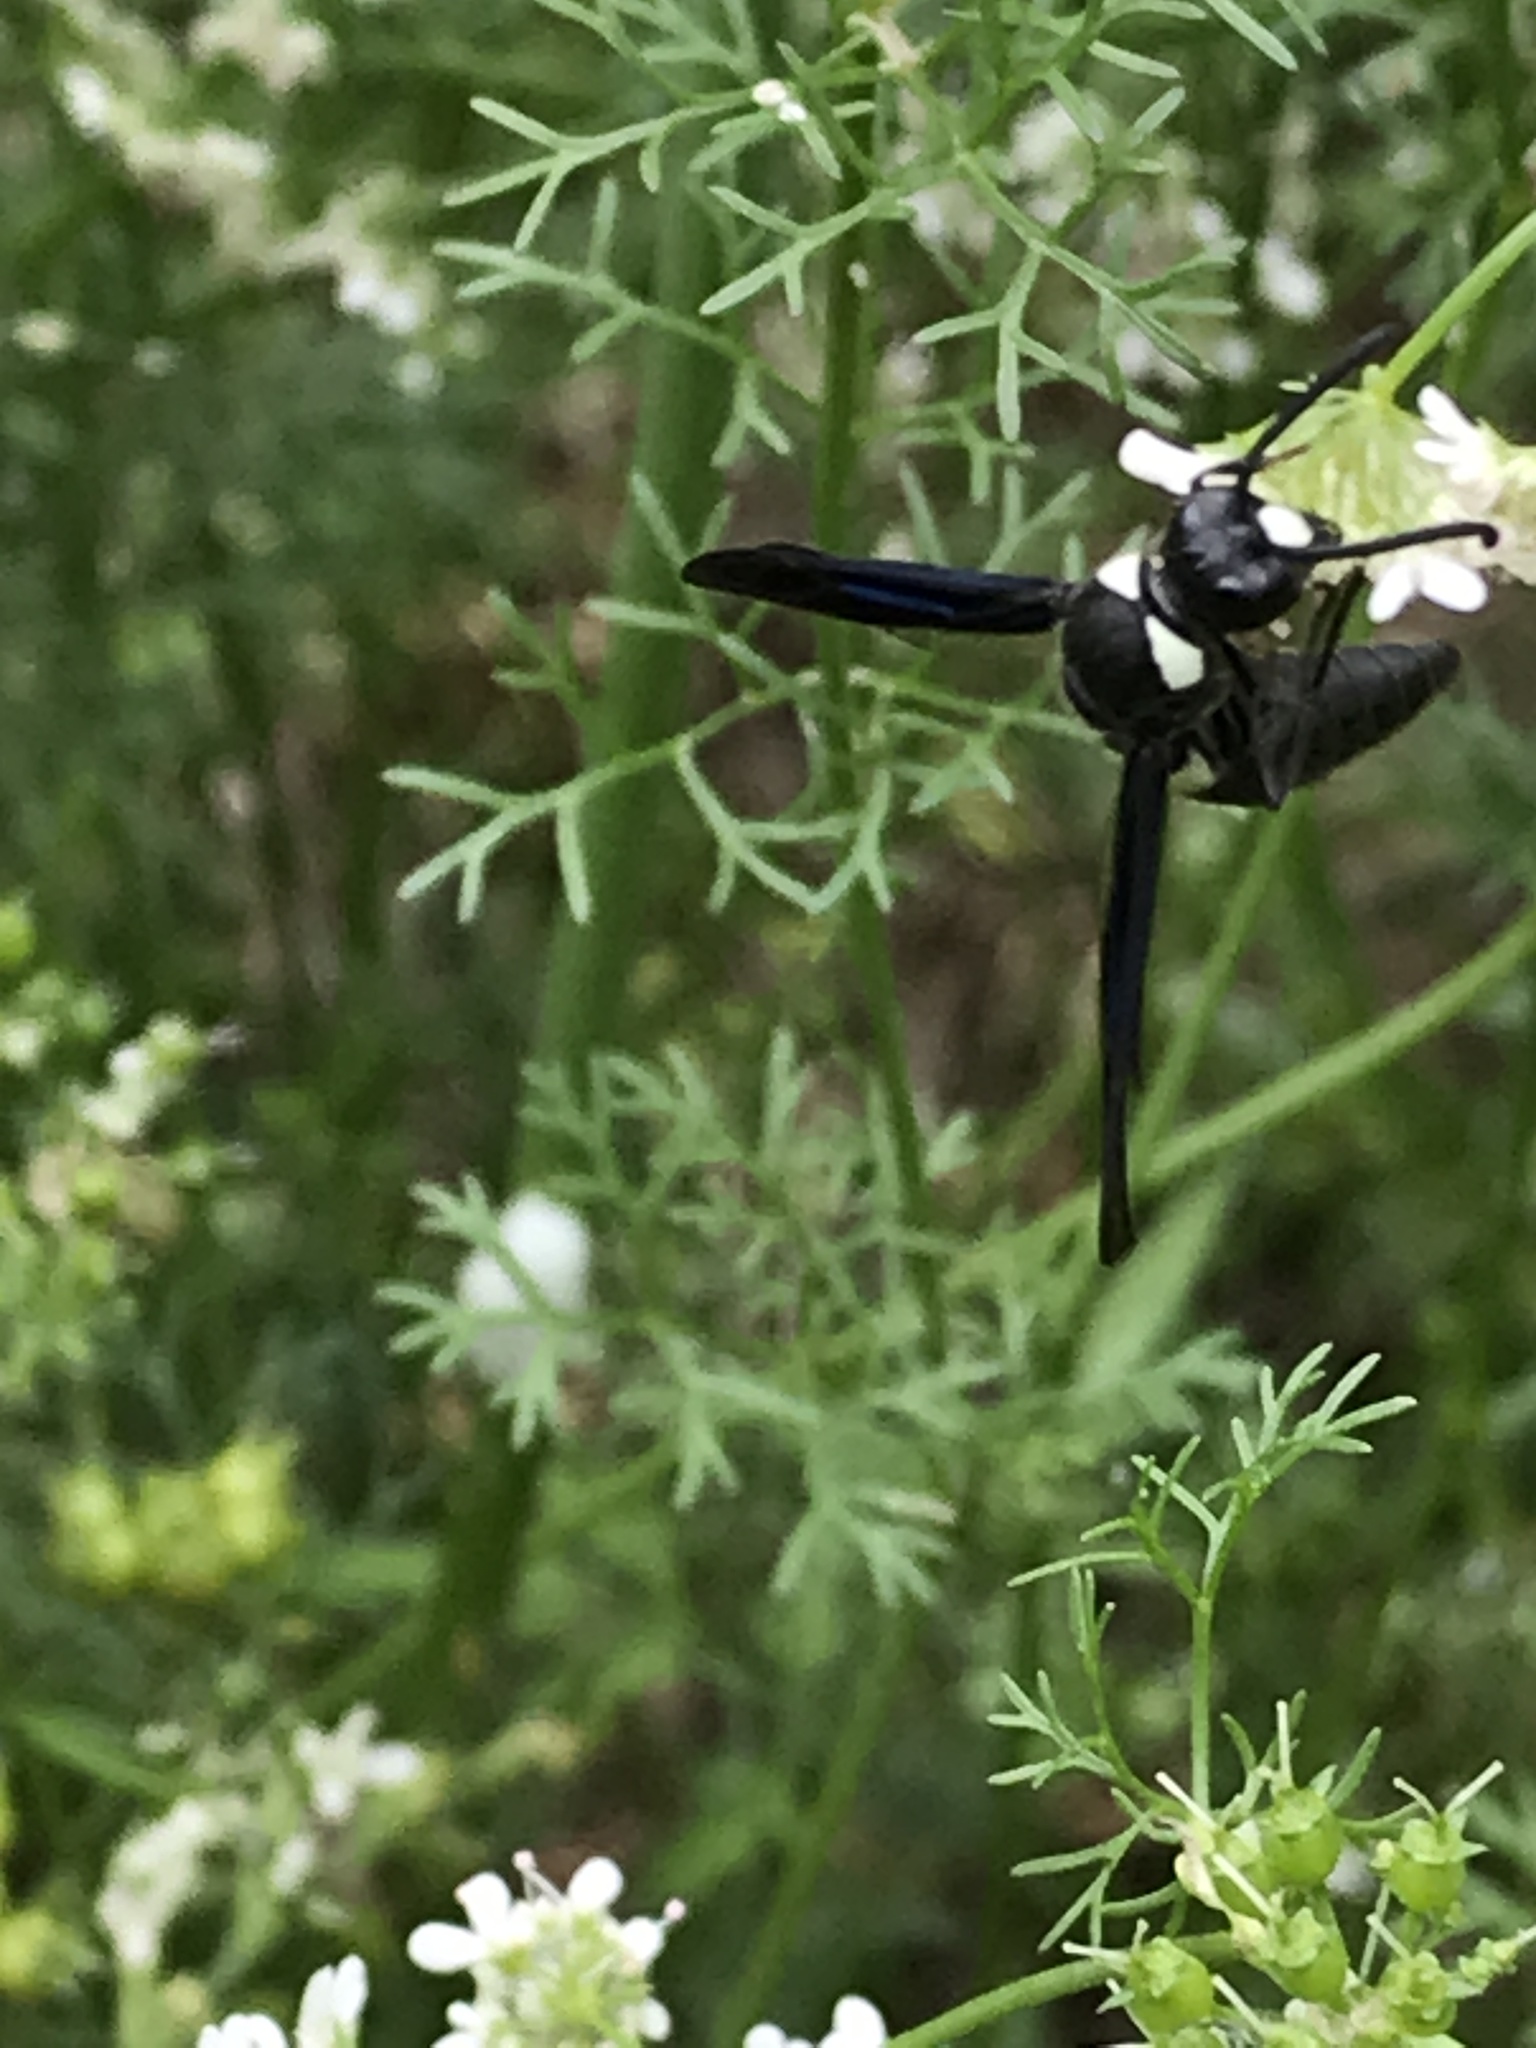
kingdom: Animalia
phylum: Arthropoda
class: Insecta
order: Hymenoptera
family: Eumenidae
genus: Monobia
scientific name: Monobia quadridens
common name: Four-toothed mason wasp
